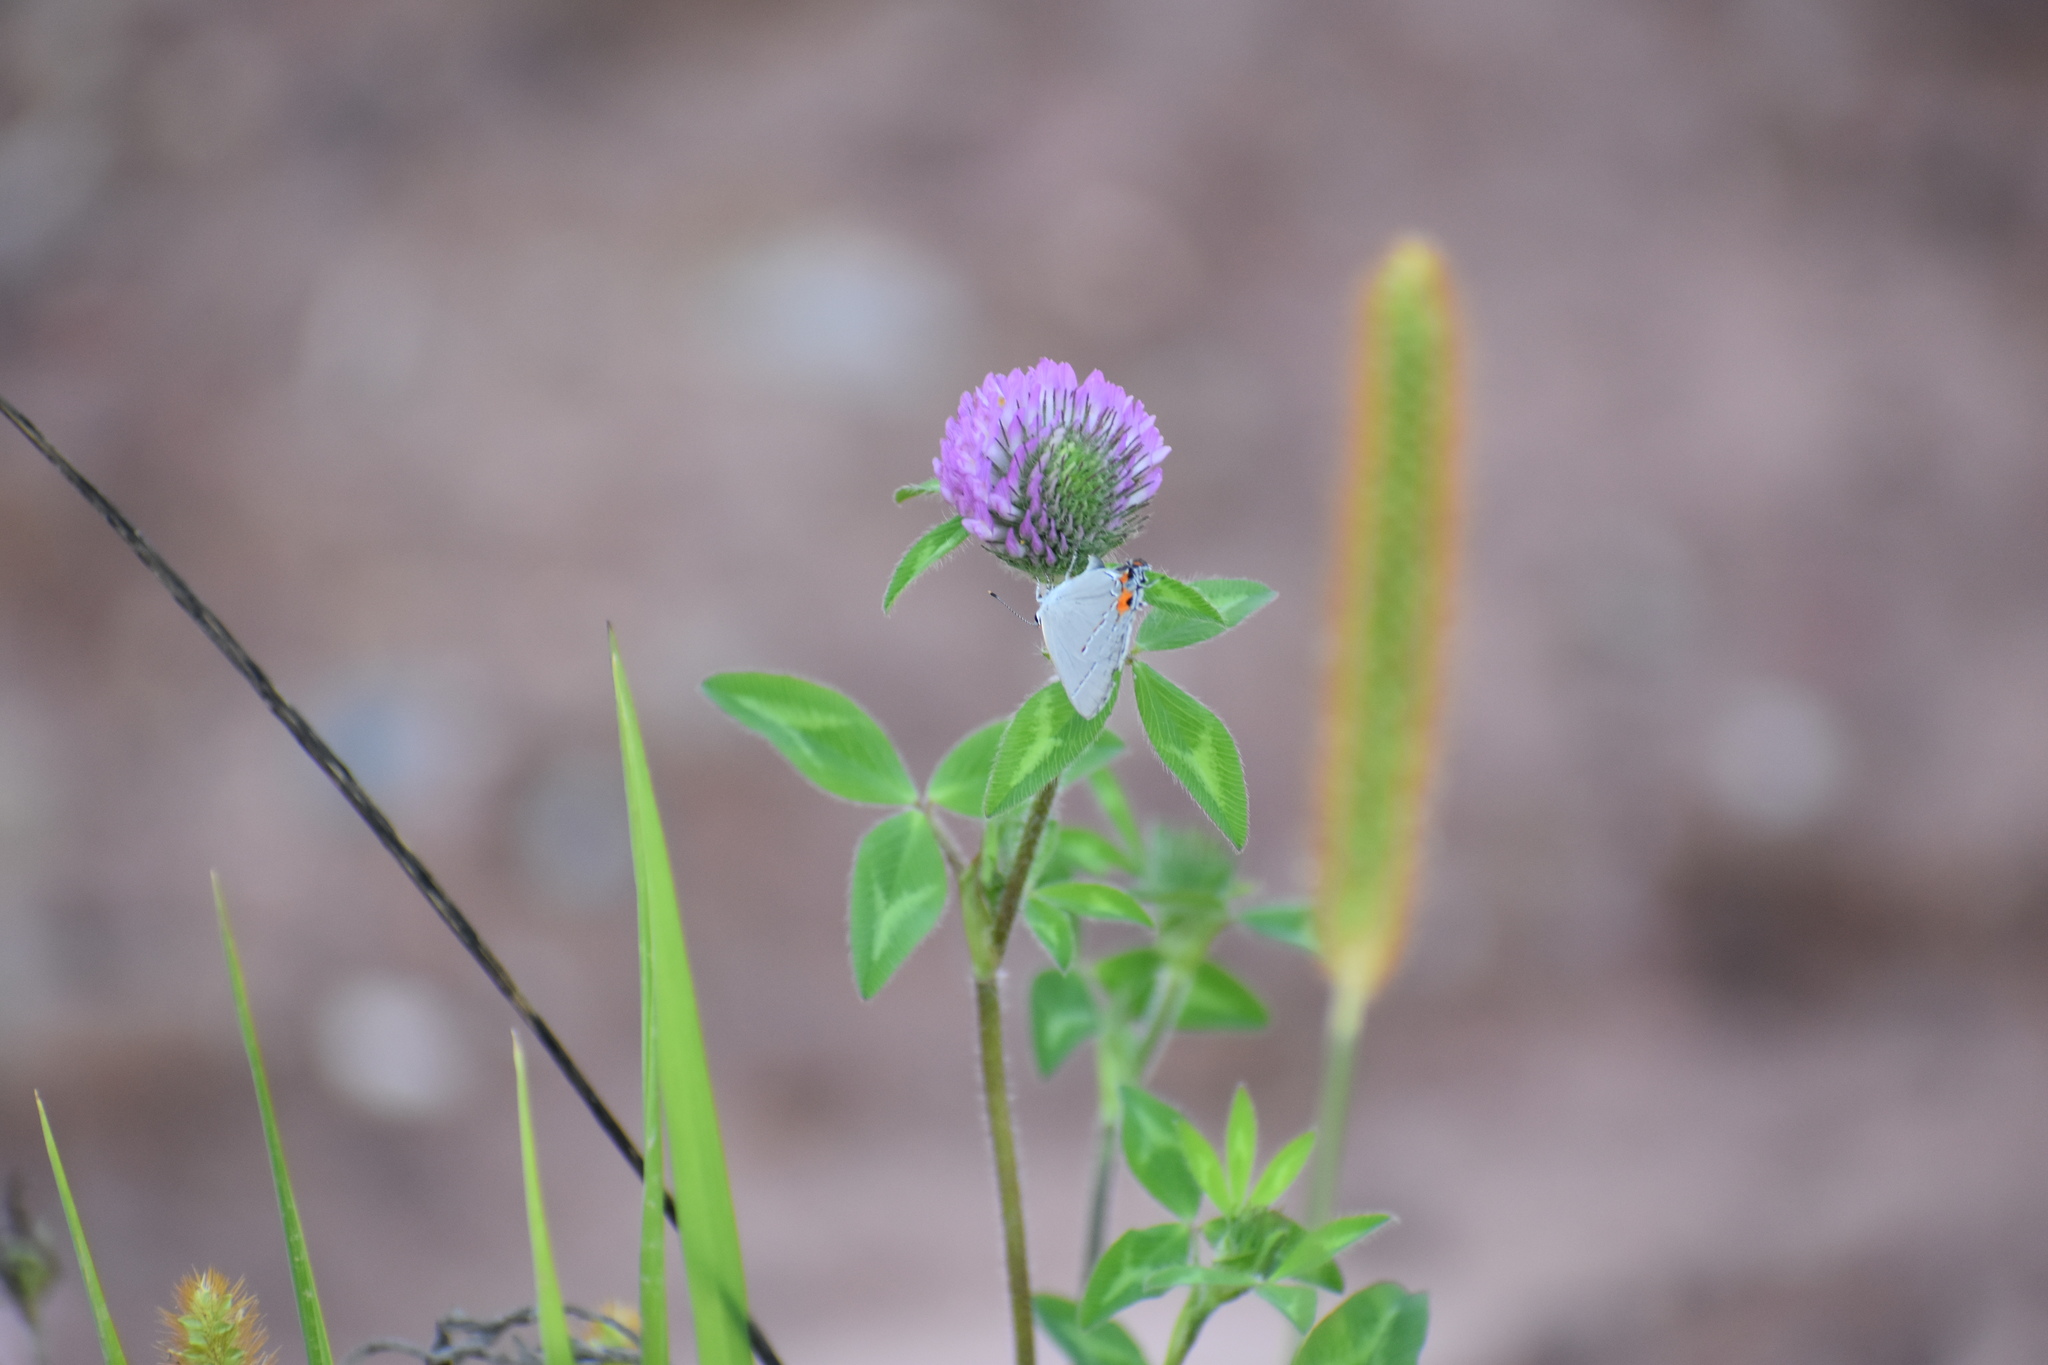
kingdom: Animalia
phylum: Arthropoda
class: Insecta
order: Lepidoptera
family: Lycaenidae
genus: Elkalyce
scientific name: Elkalyce comyntas
